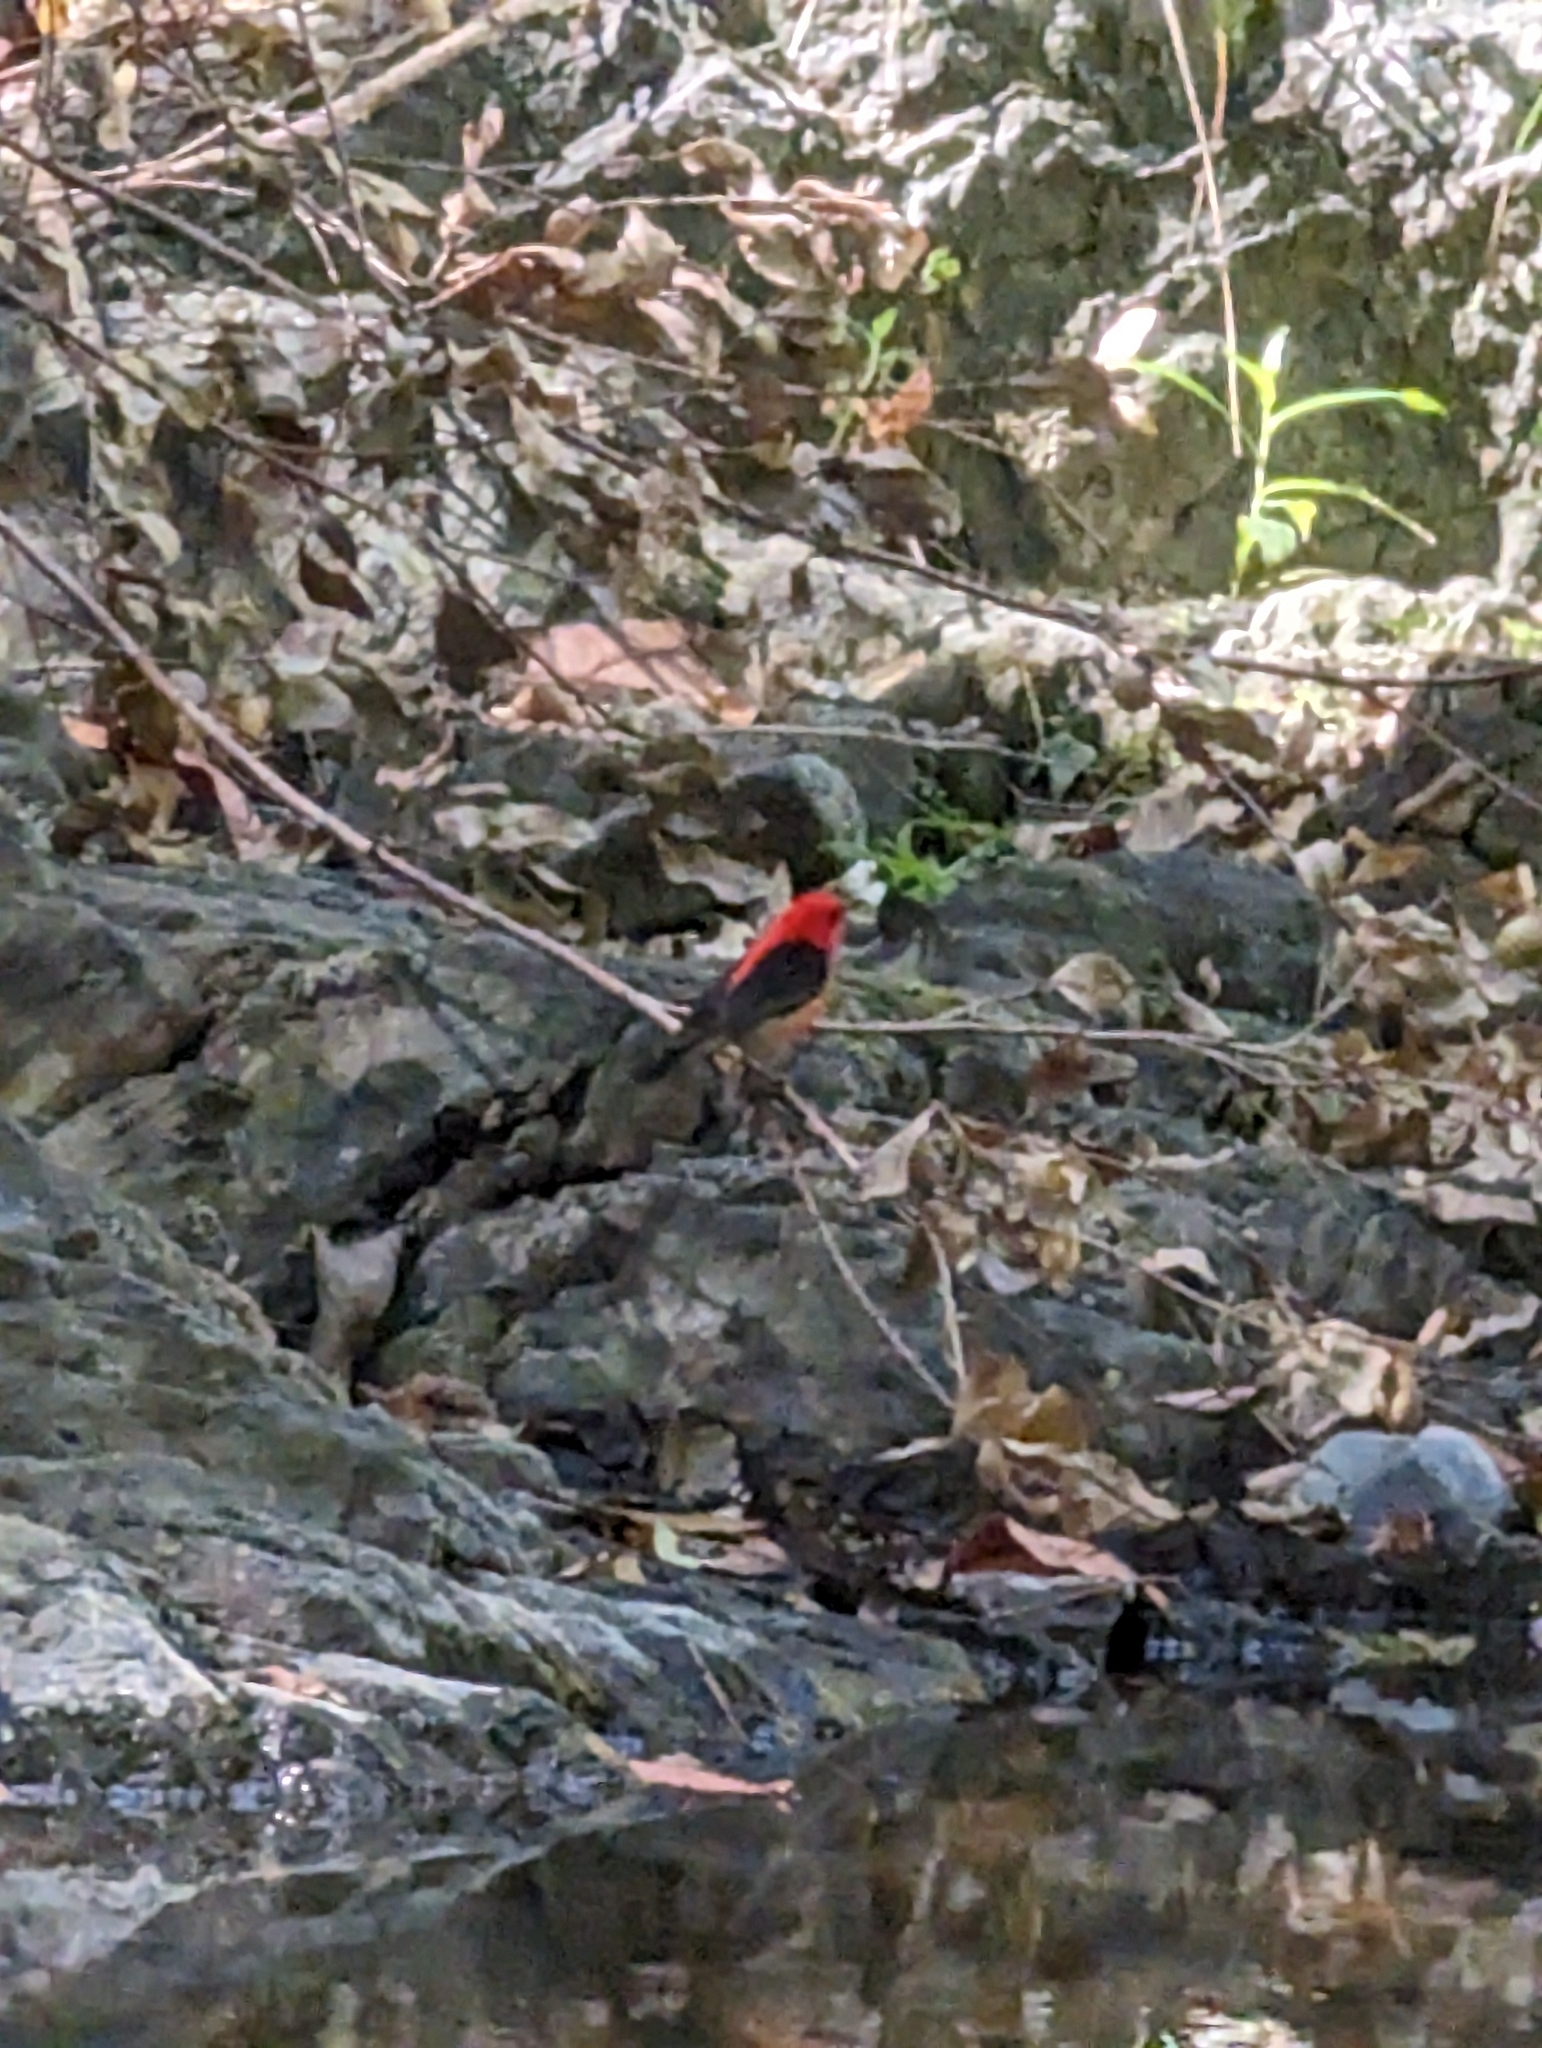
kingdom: Animalia
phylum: Chordata
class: Aves
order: Passeriformes
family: Meliphagidae
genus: Myzomela
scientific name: Myzomela sanguinolenta
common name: Scarlet myzomela
